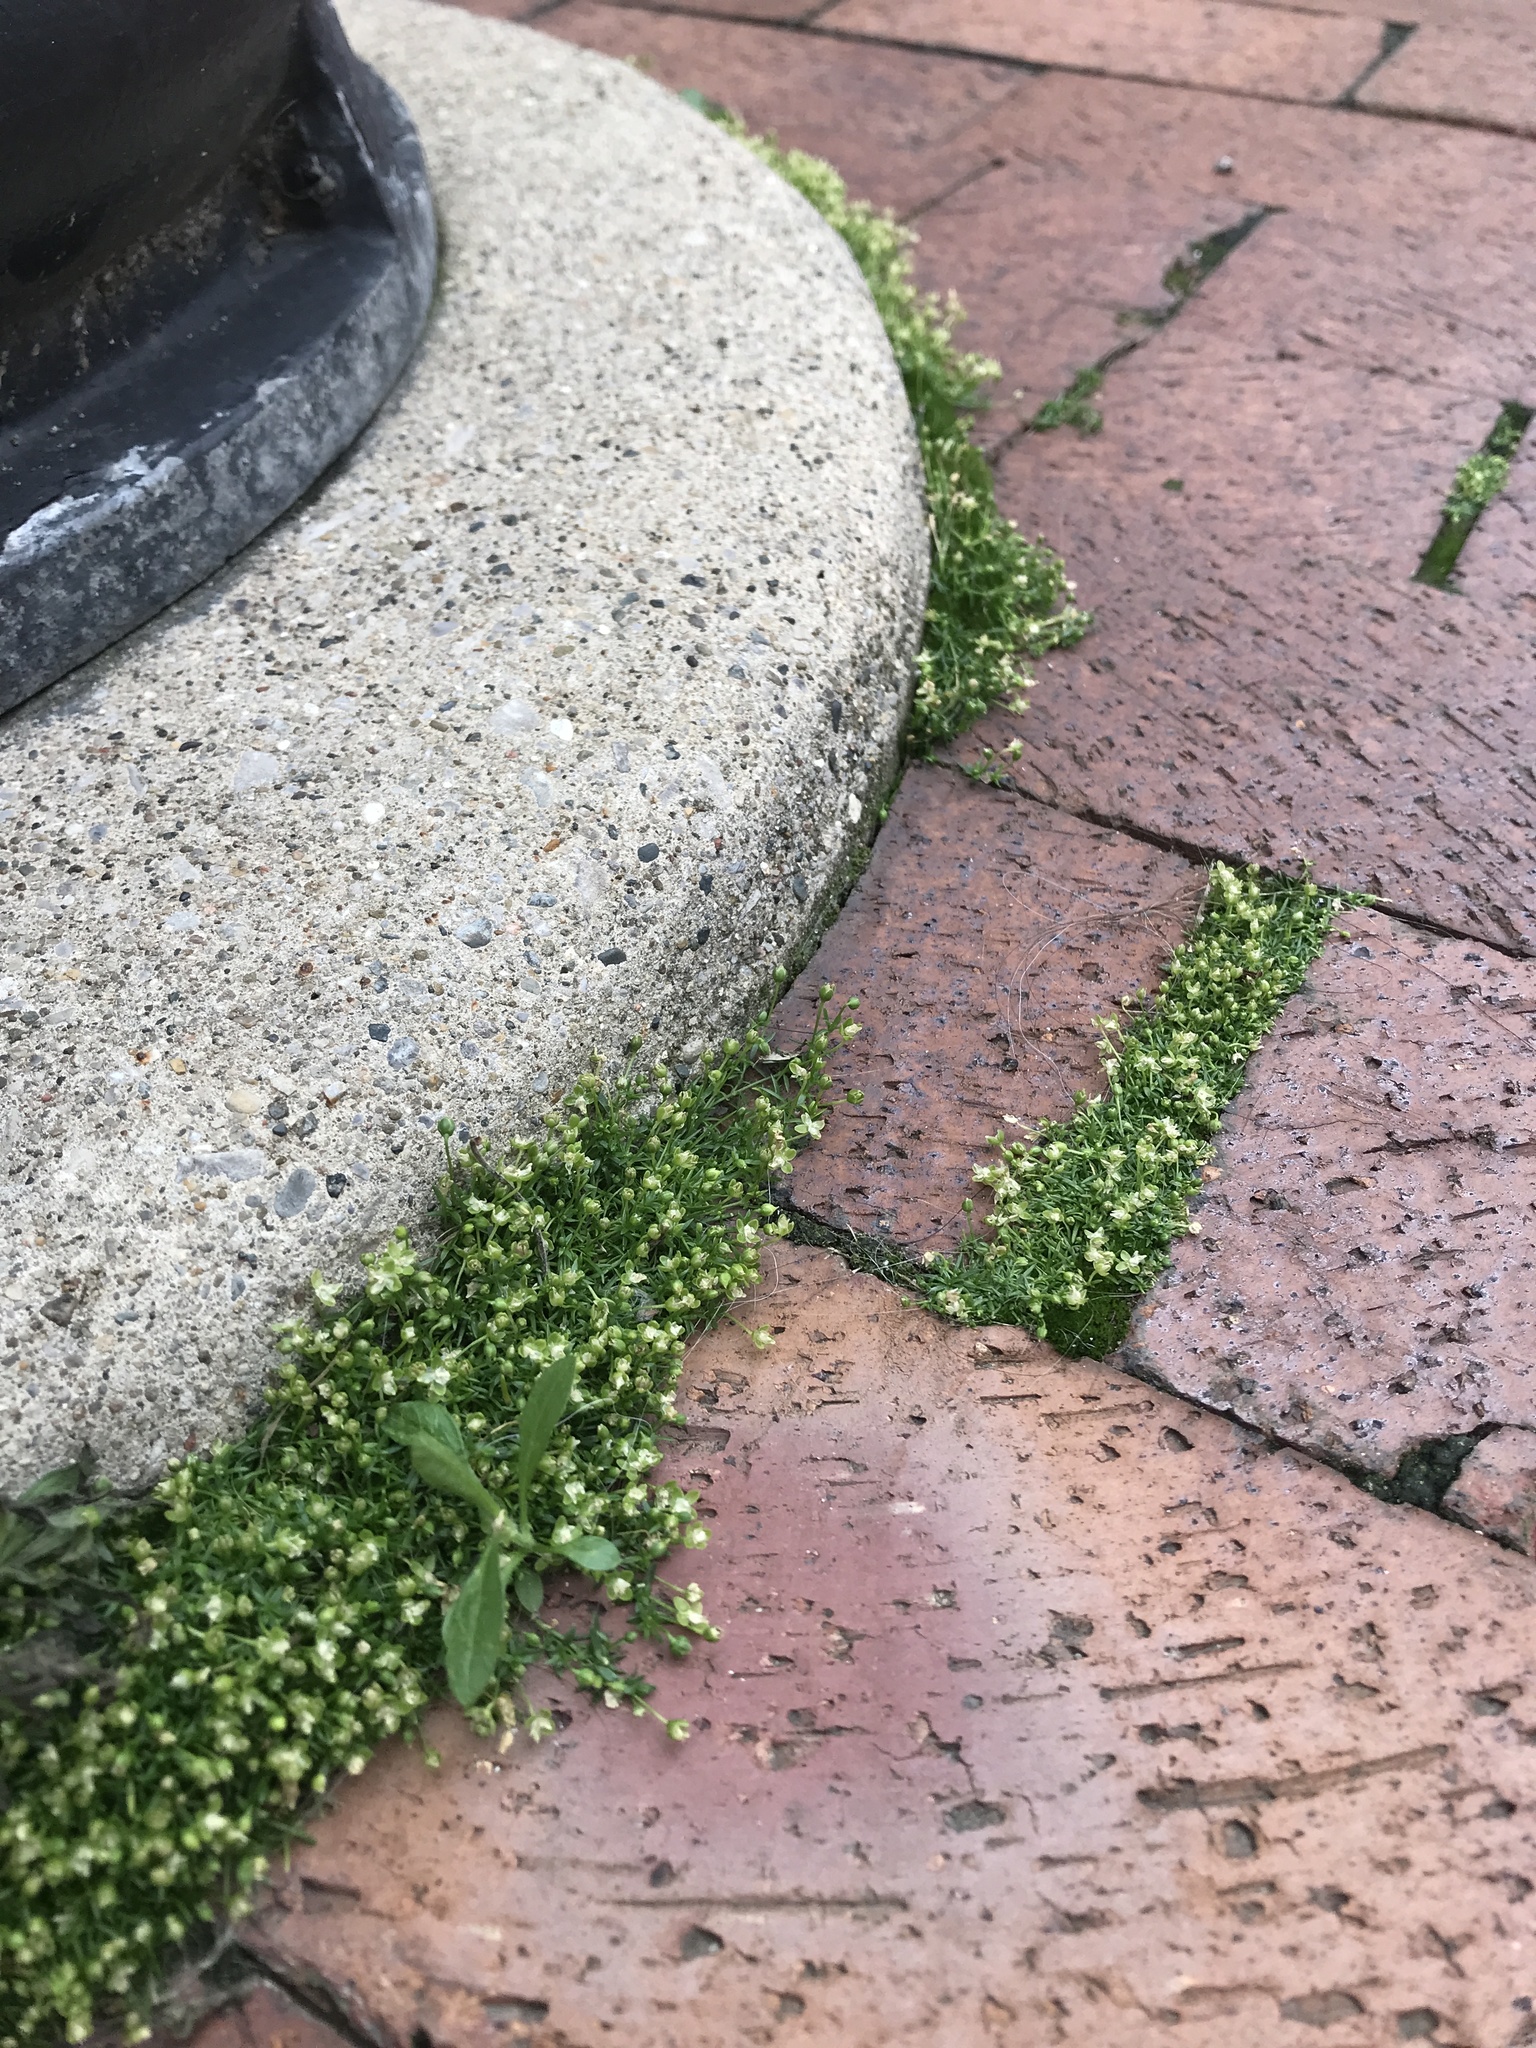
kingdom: Plantae
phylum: Tracheophyta
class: Magnoliopsida
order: Caryophyllales
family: Caryophyllaceae
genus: Sagina
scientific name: Sagina procumbens
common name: Procumbent pearlwort
